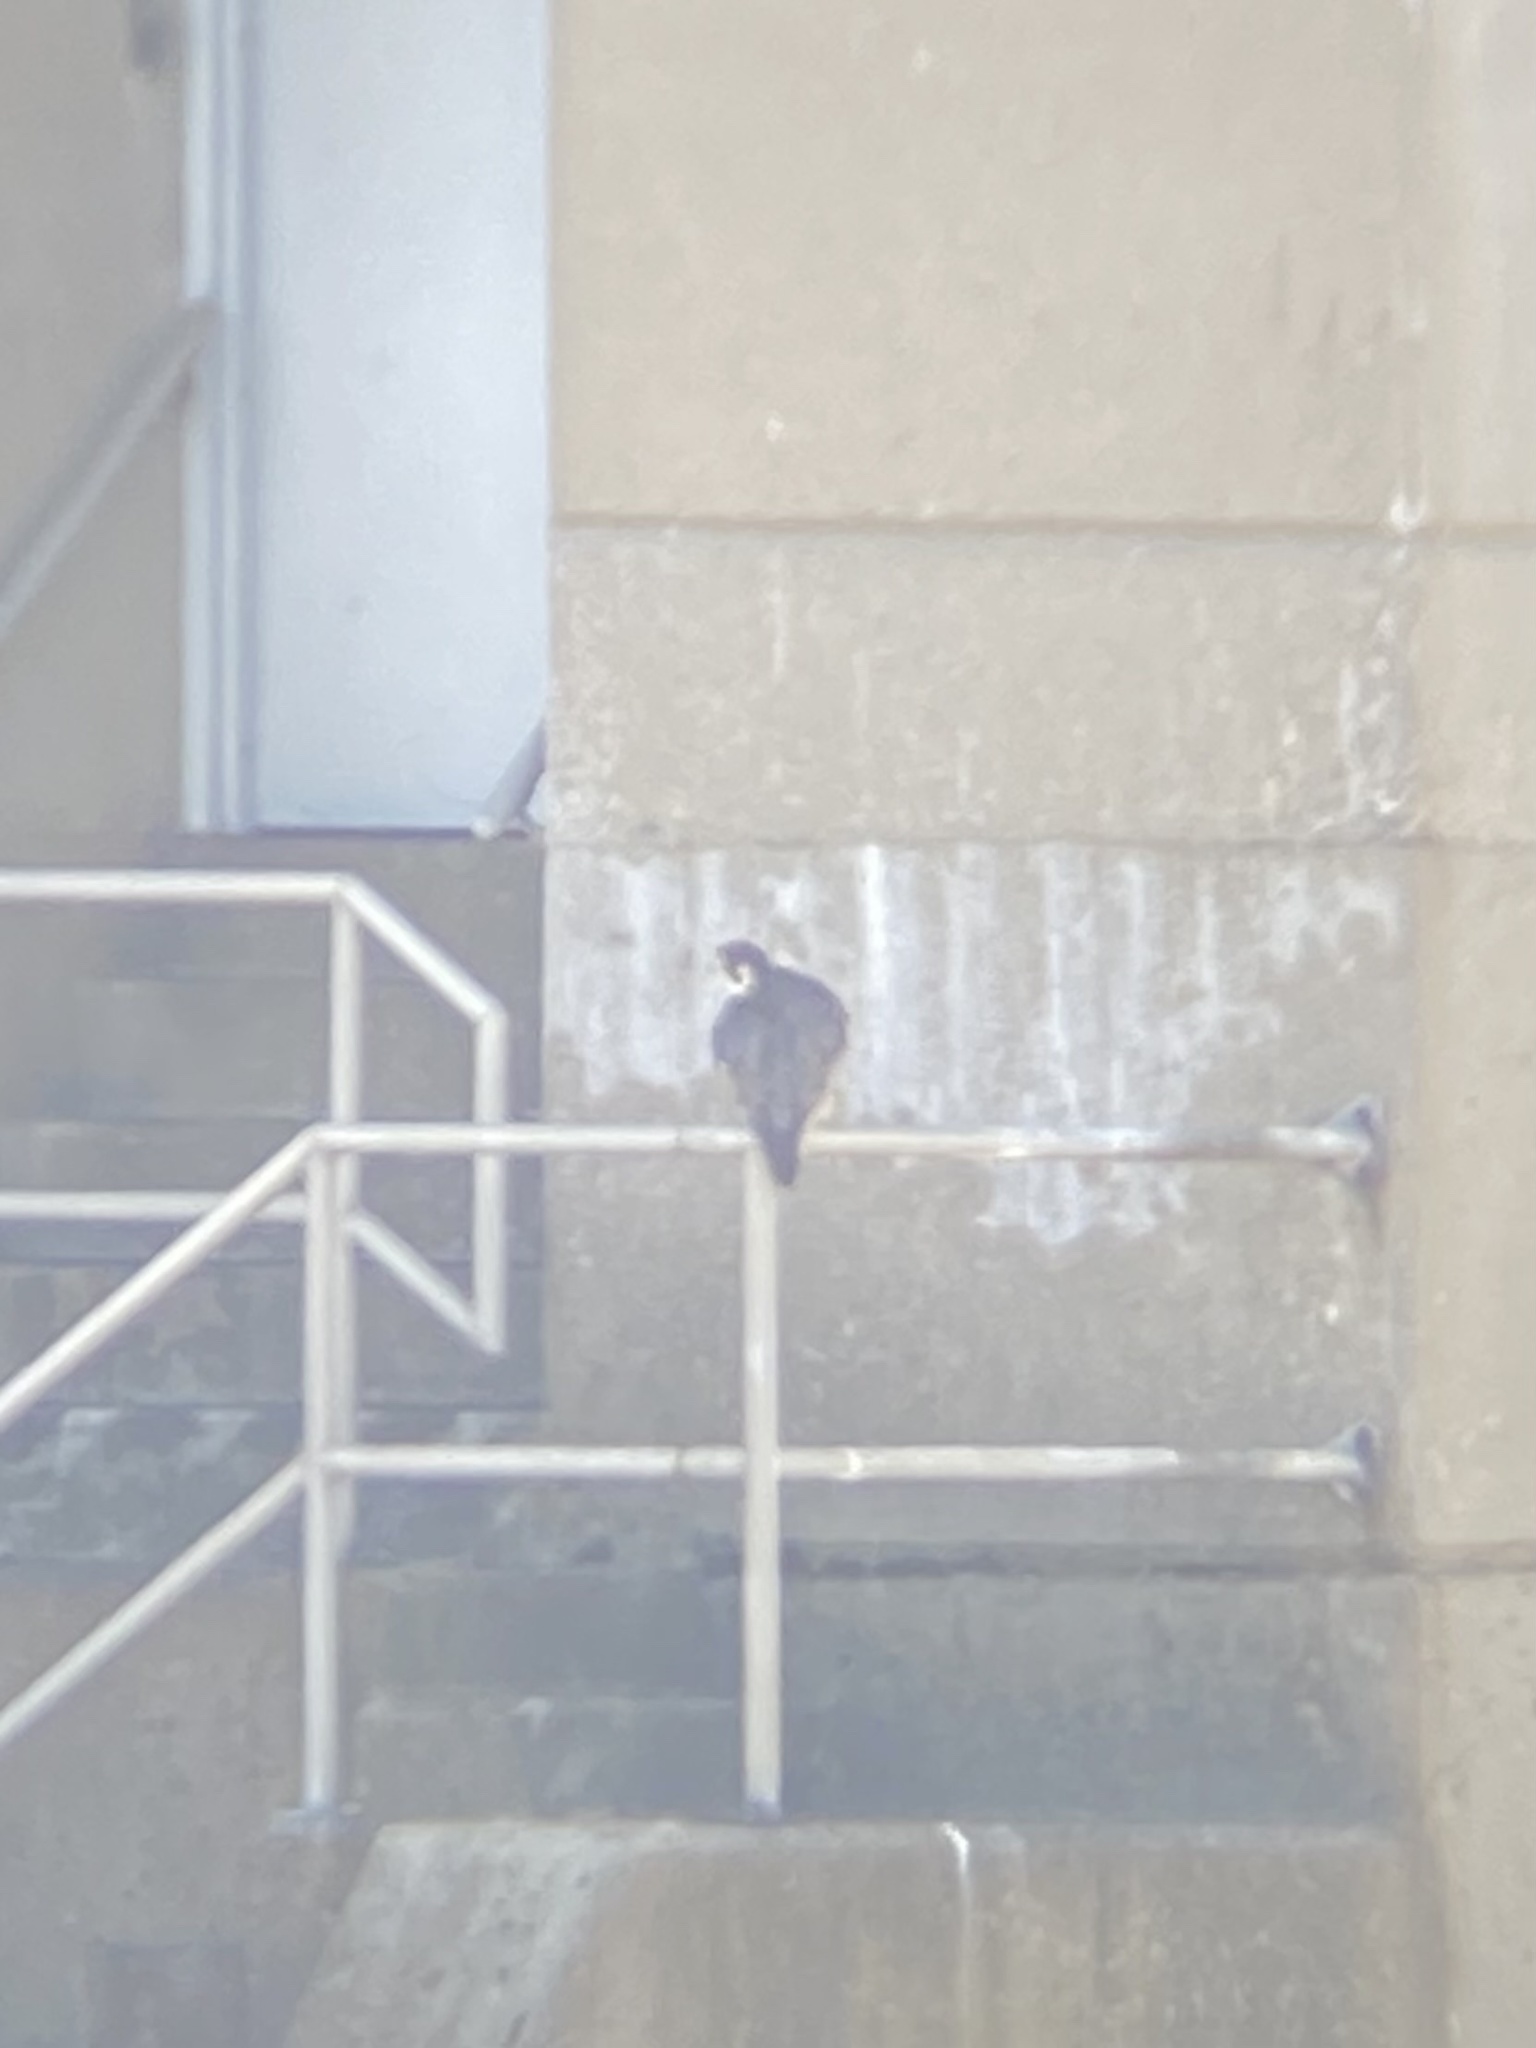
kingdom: Animalia
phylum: Chordata
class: Aves
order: Falconiformes
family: Falconidae
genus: Falco
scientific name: Falco peregrinus
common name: Peregrine falcon
